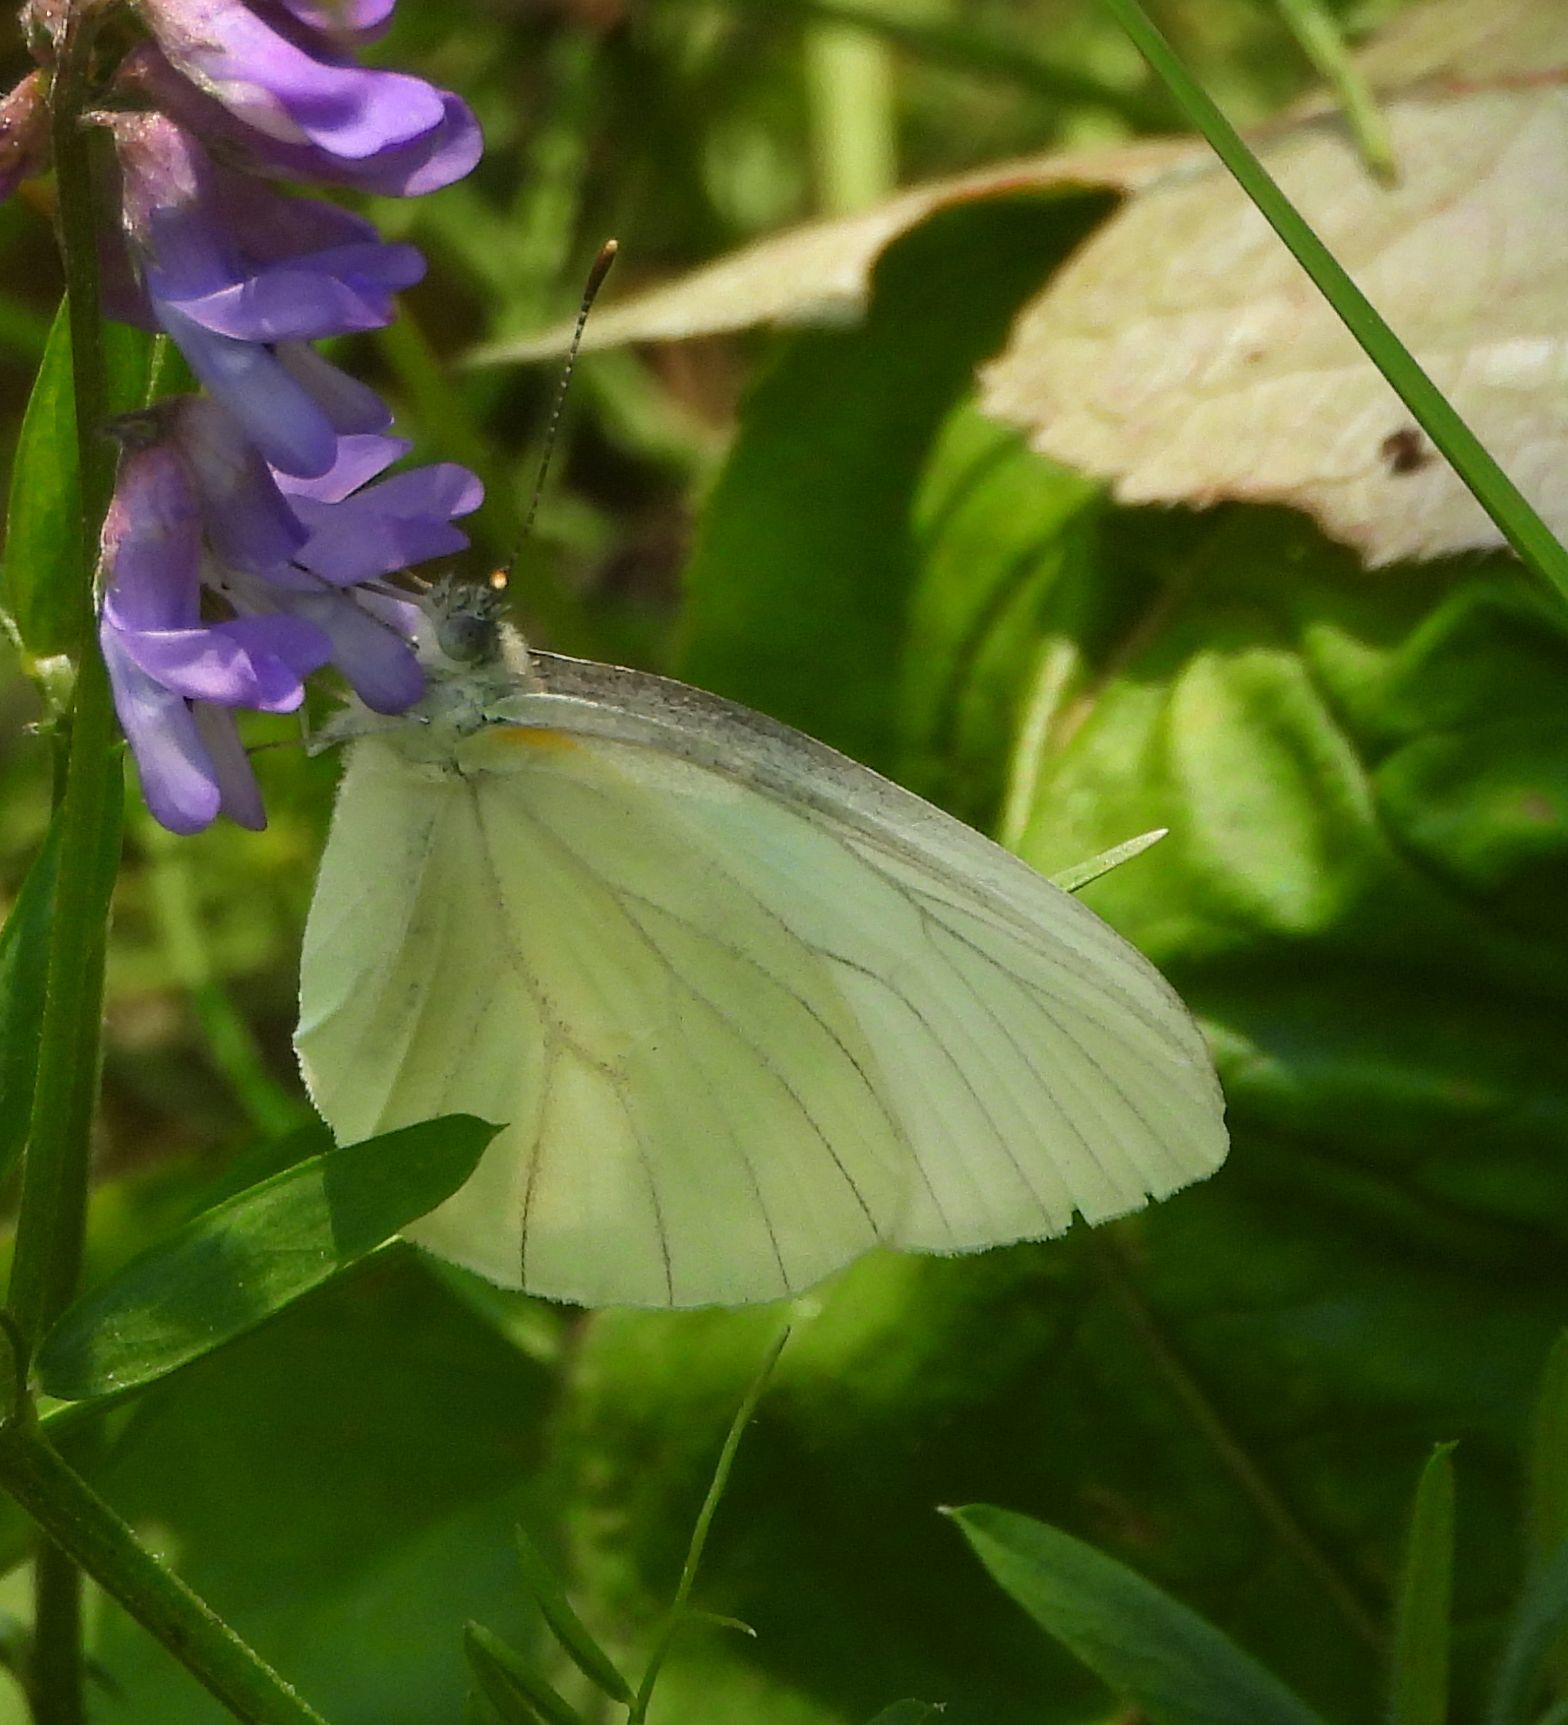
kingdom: Animalia
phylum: Arthropoda
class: Insecta
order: Lepidoptera
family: Pieridae
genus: Pieris
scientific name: Pieris oleracea
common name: Mustard white
